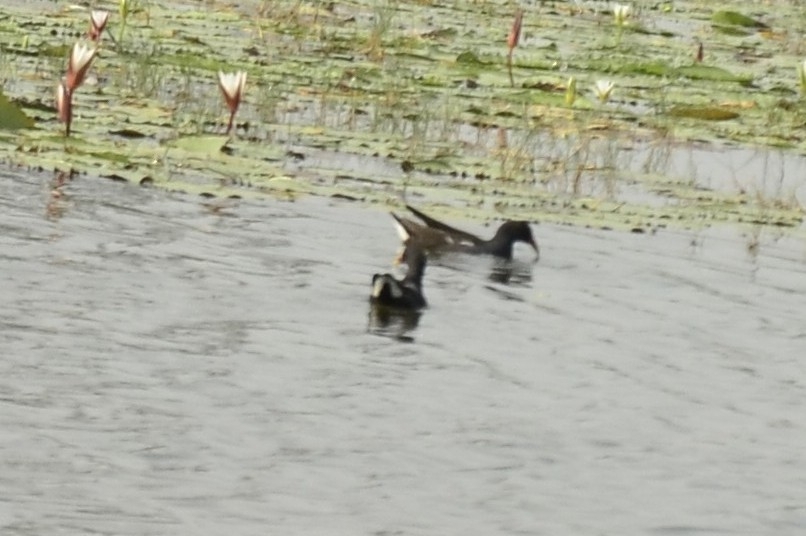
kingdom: Animalia
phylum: Chordata
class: Aves
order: Gruiformes
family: Rallidae
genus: Gallinula
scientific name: Gallinula chloropus
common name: Common moorhen
